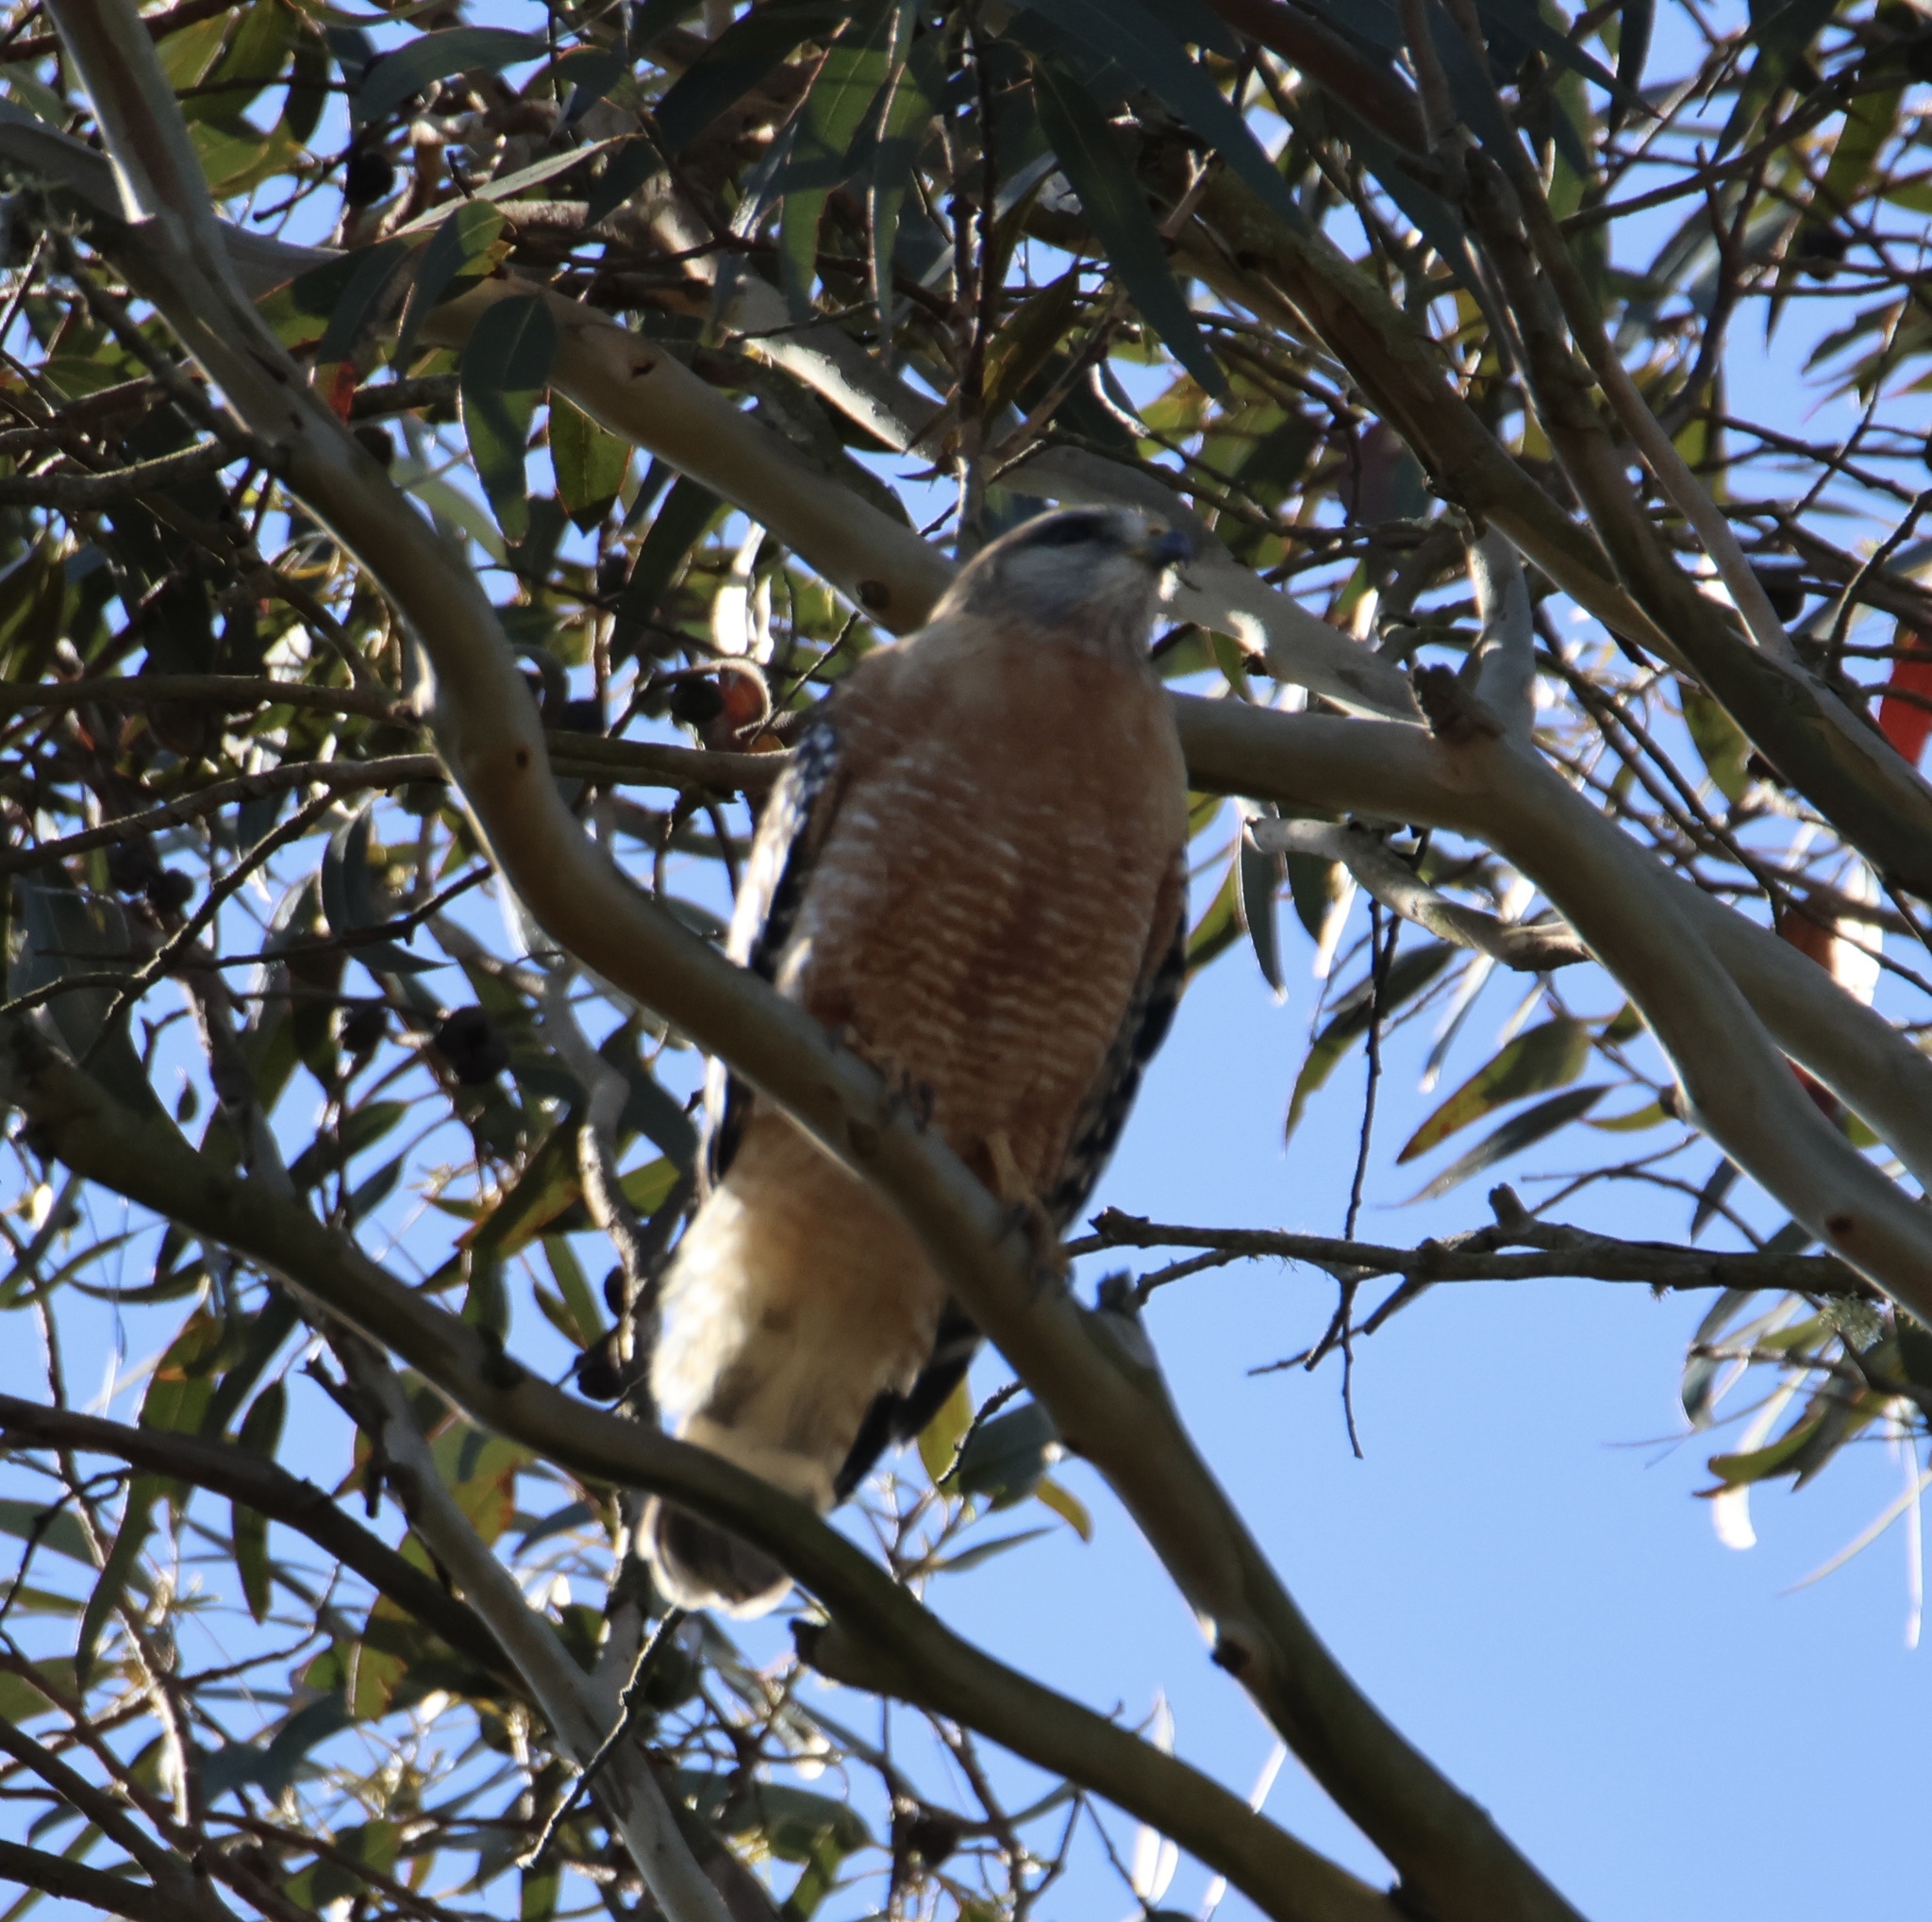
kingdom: Animalia
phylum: Chordata
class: Aves
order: Accipitriformes
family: Accipitridae
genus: Buteo
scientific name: Buteo lineatus
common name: Red-shouldered hawk
